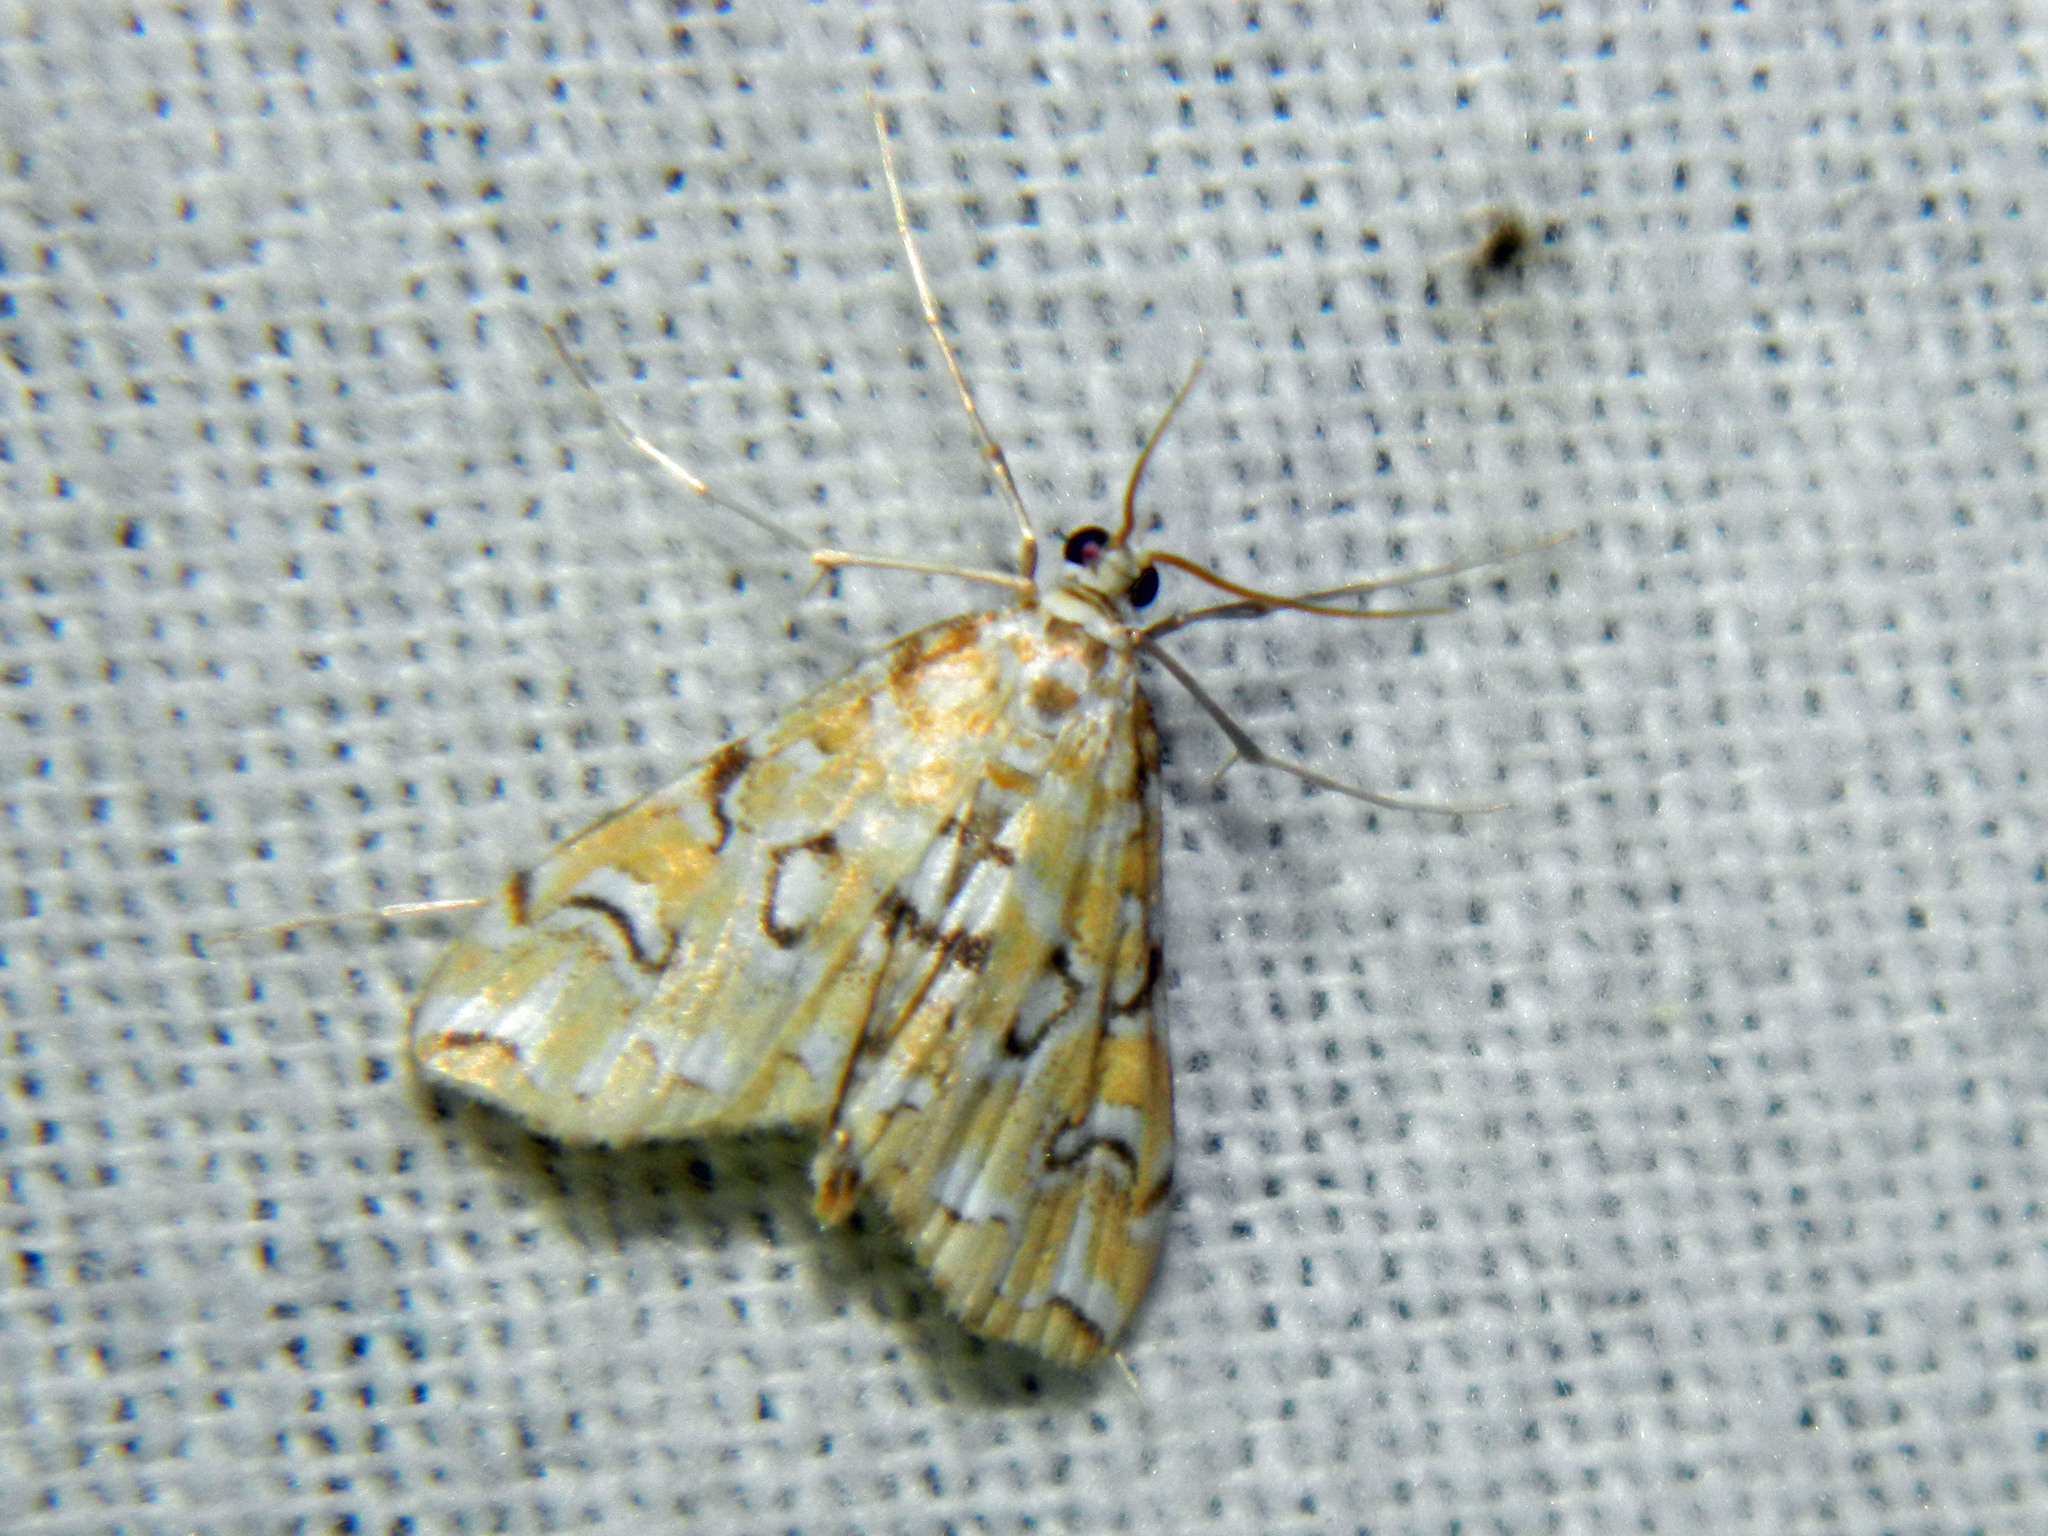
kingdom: Animalia
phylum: Arthropoda
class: Insecta
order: Lepidoptera
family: Crambidae
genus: Elophila
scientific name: Elophila icciusalis
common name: Pondside pyralid moth
